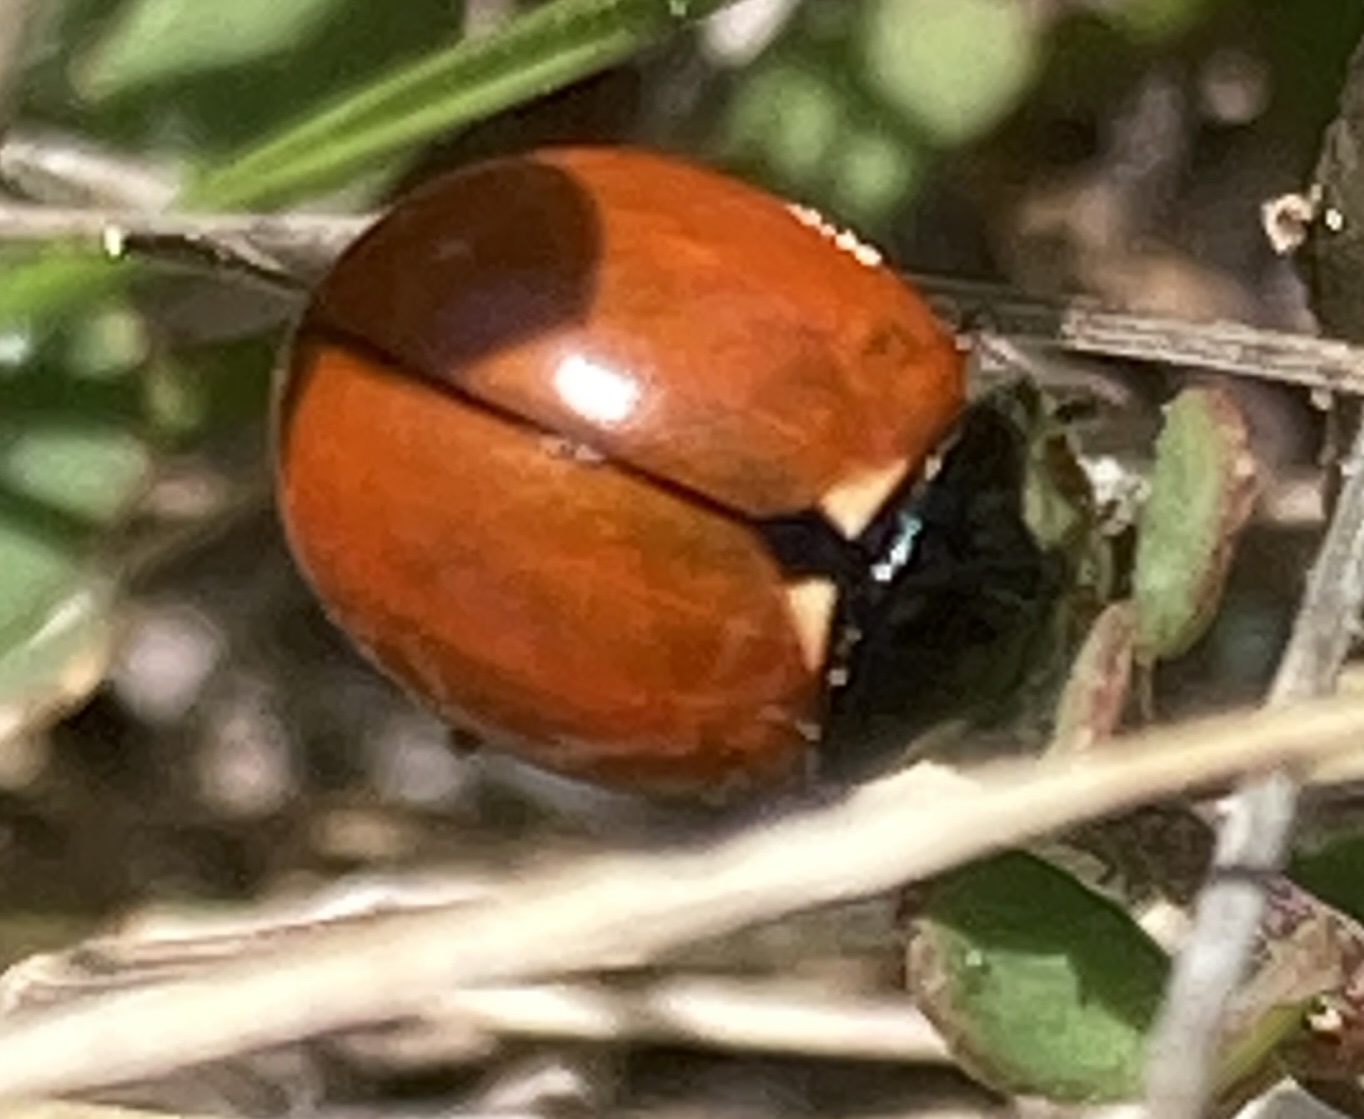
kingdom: Animalia
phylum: Arthropoda
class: Insecta
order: Coleoptera
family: Coccinellidae
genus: Coccinella
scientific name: Coccinella californica
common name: Lady beetle
